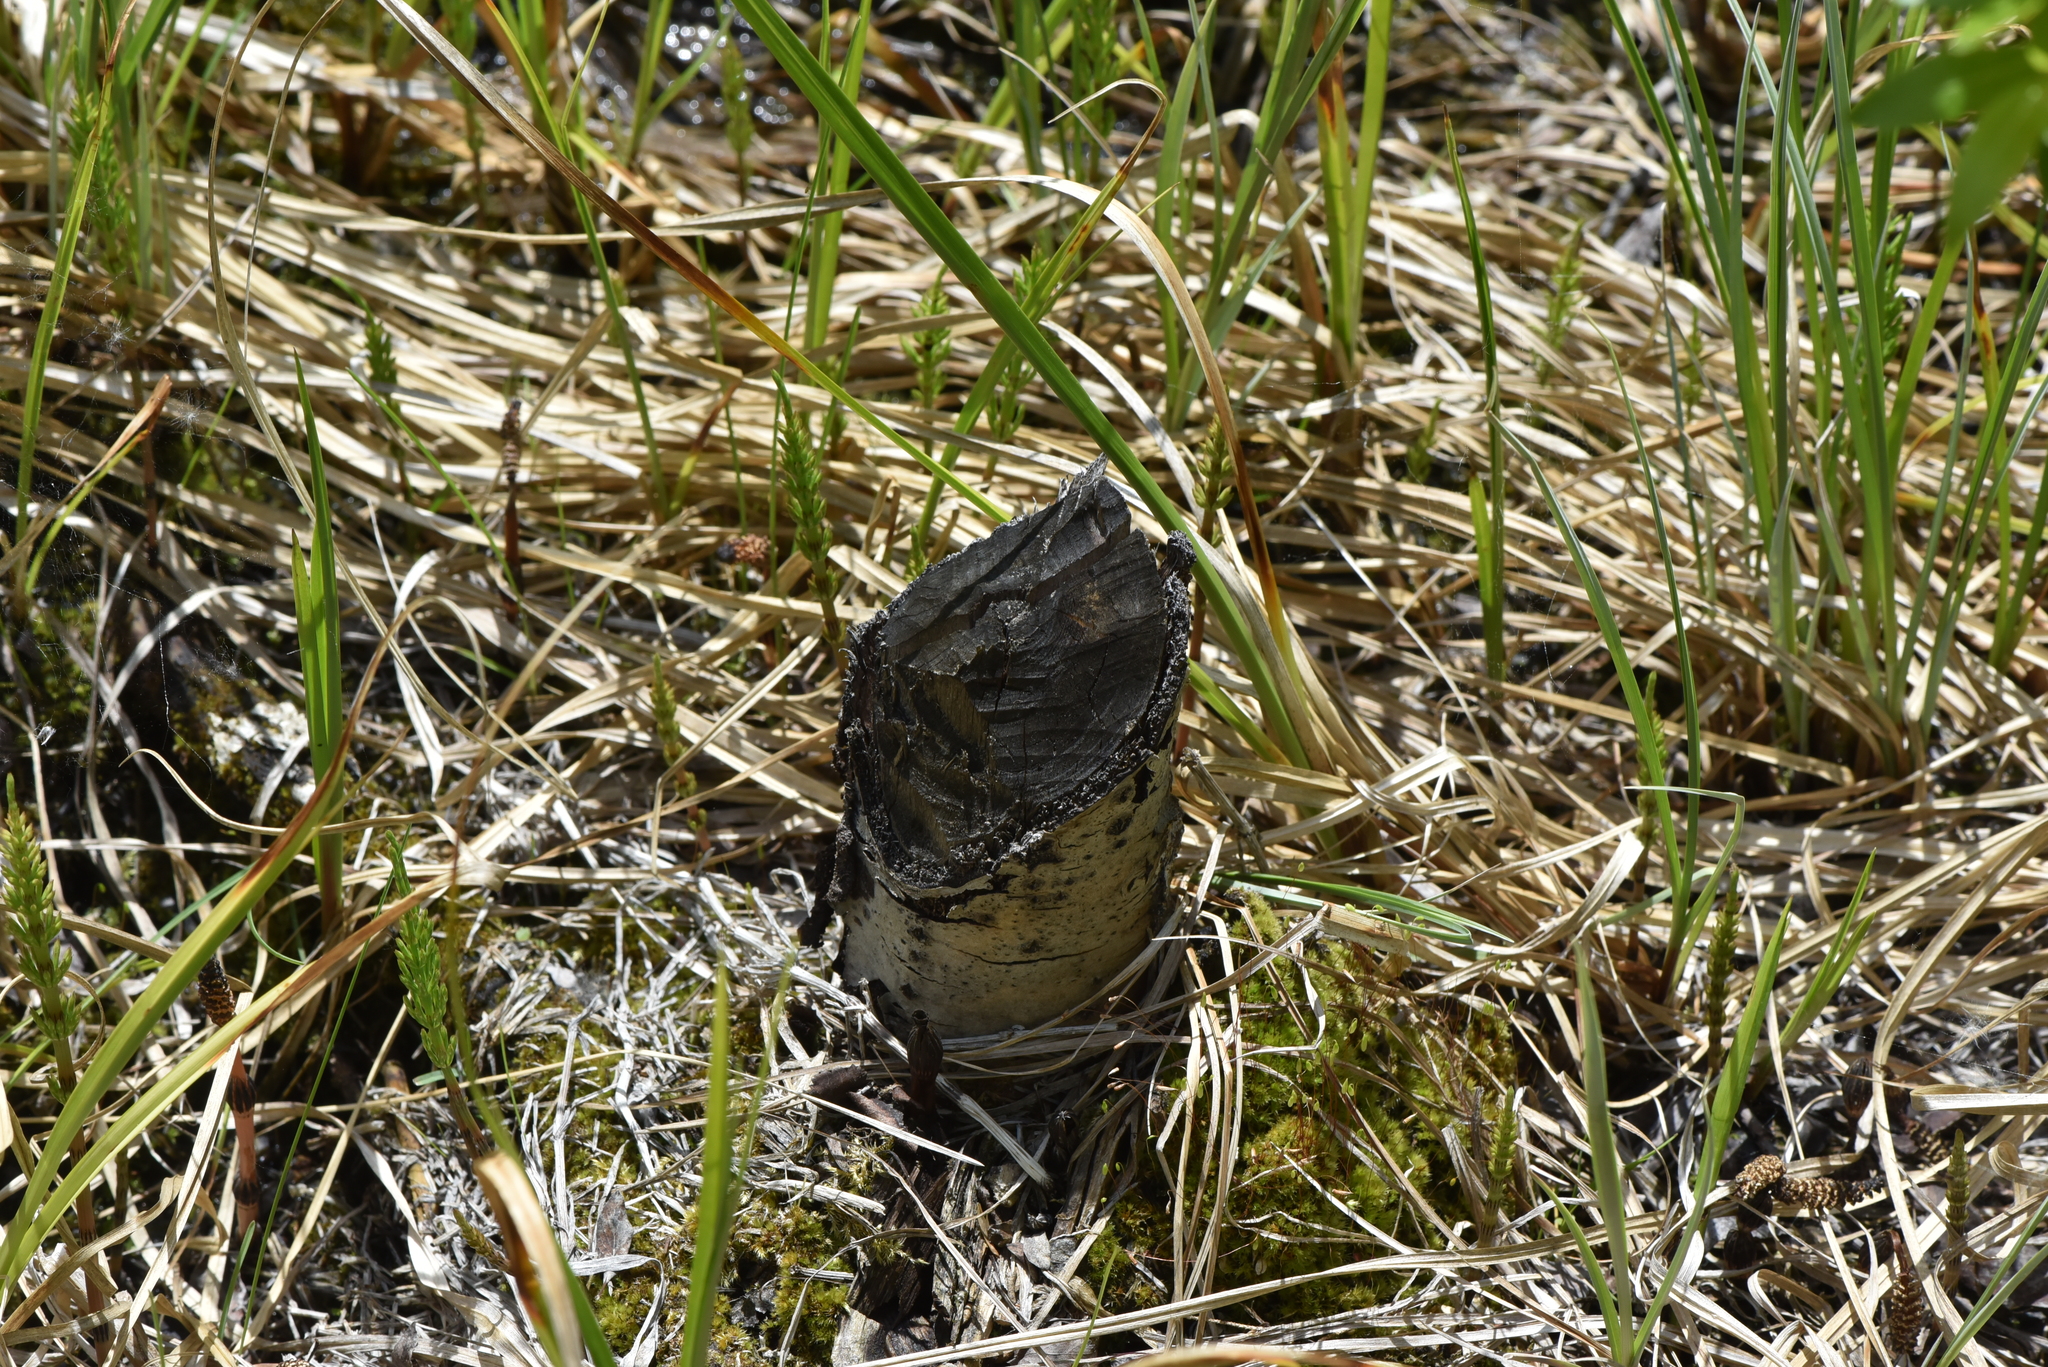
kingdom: Animalia
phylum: Chordata
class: Mammalia
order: Rodentia
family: Castoridae
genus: Castor
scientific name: Castor canadensis
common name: American beaver
